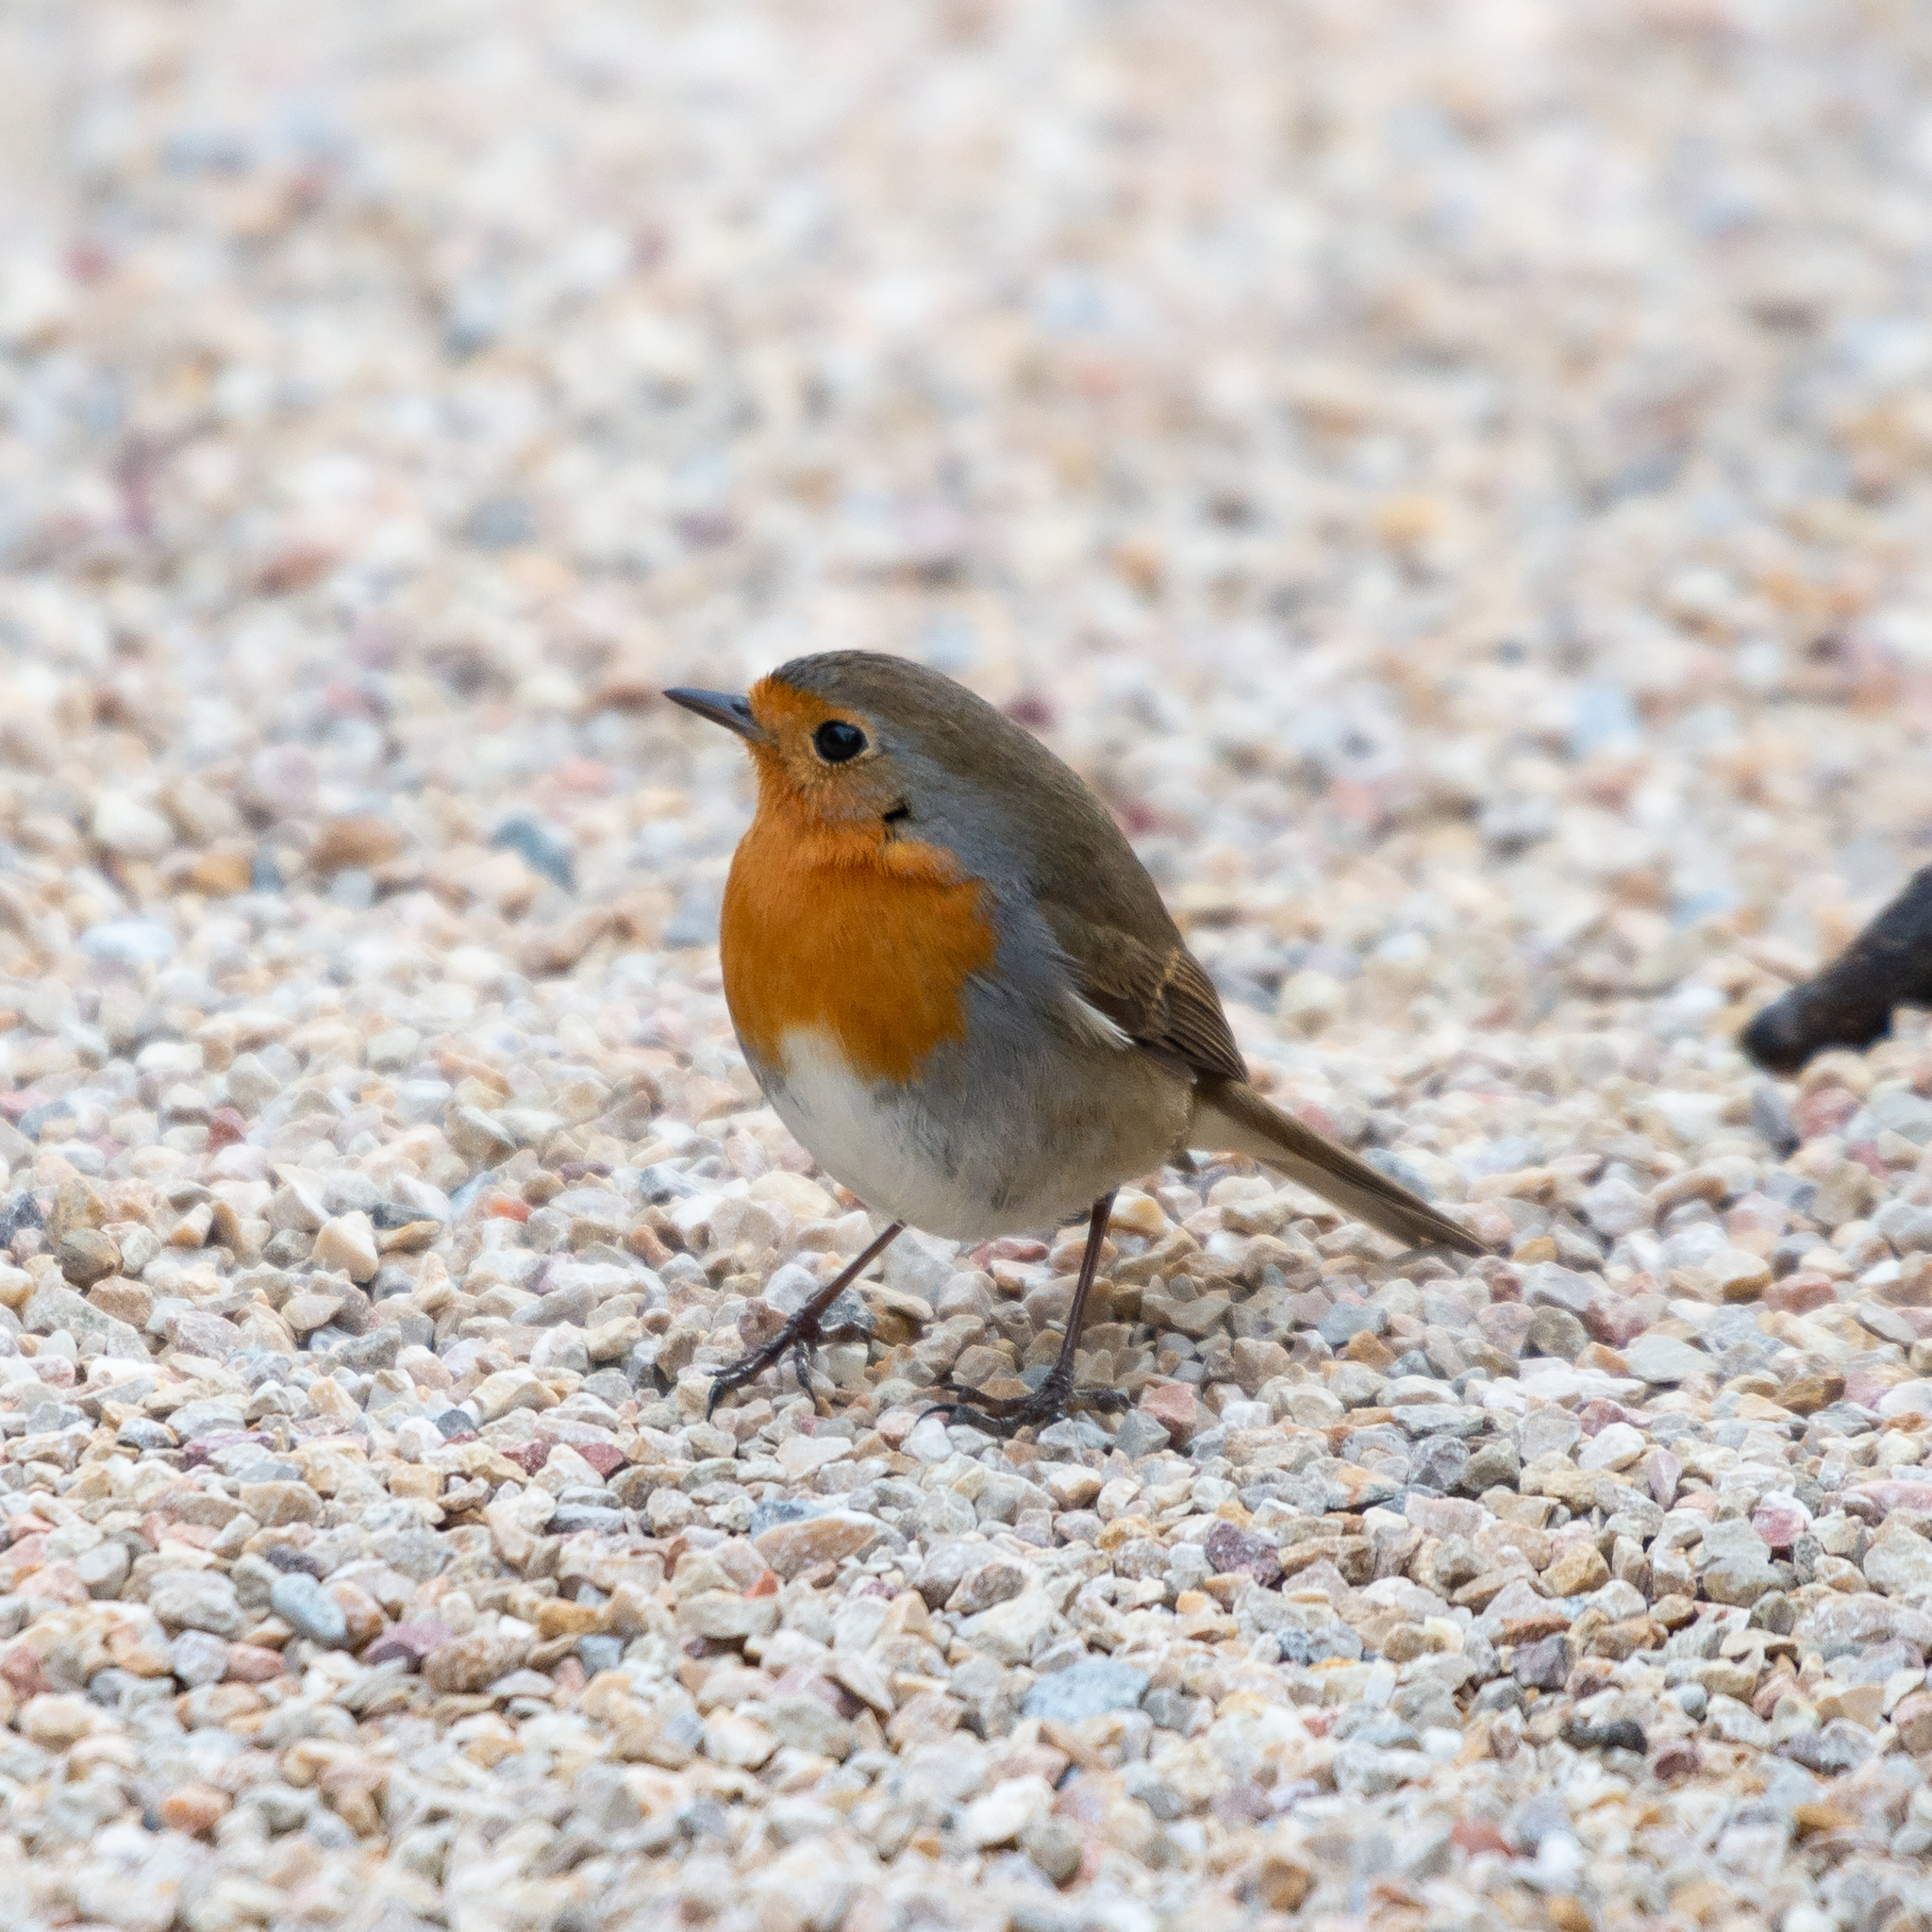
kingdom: Animalia
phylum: Chordata
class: Aves
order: Passeriformes
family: Muscicapidae
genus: Erithacus
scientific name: Erithacus rubecula
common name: European robin
